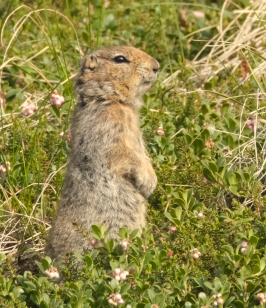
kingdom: Animalia
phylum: Chordata
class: Mammalia
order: Rodentia
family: Sciuridae
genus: Urocitellus
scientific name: Urocitellus parryii
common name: Arctic ground squirrel
